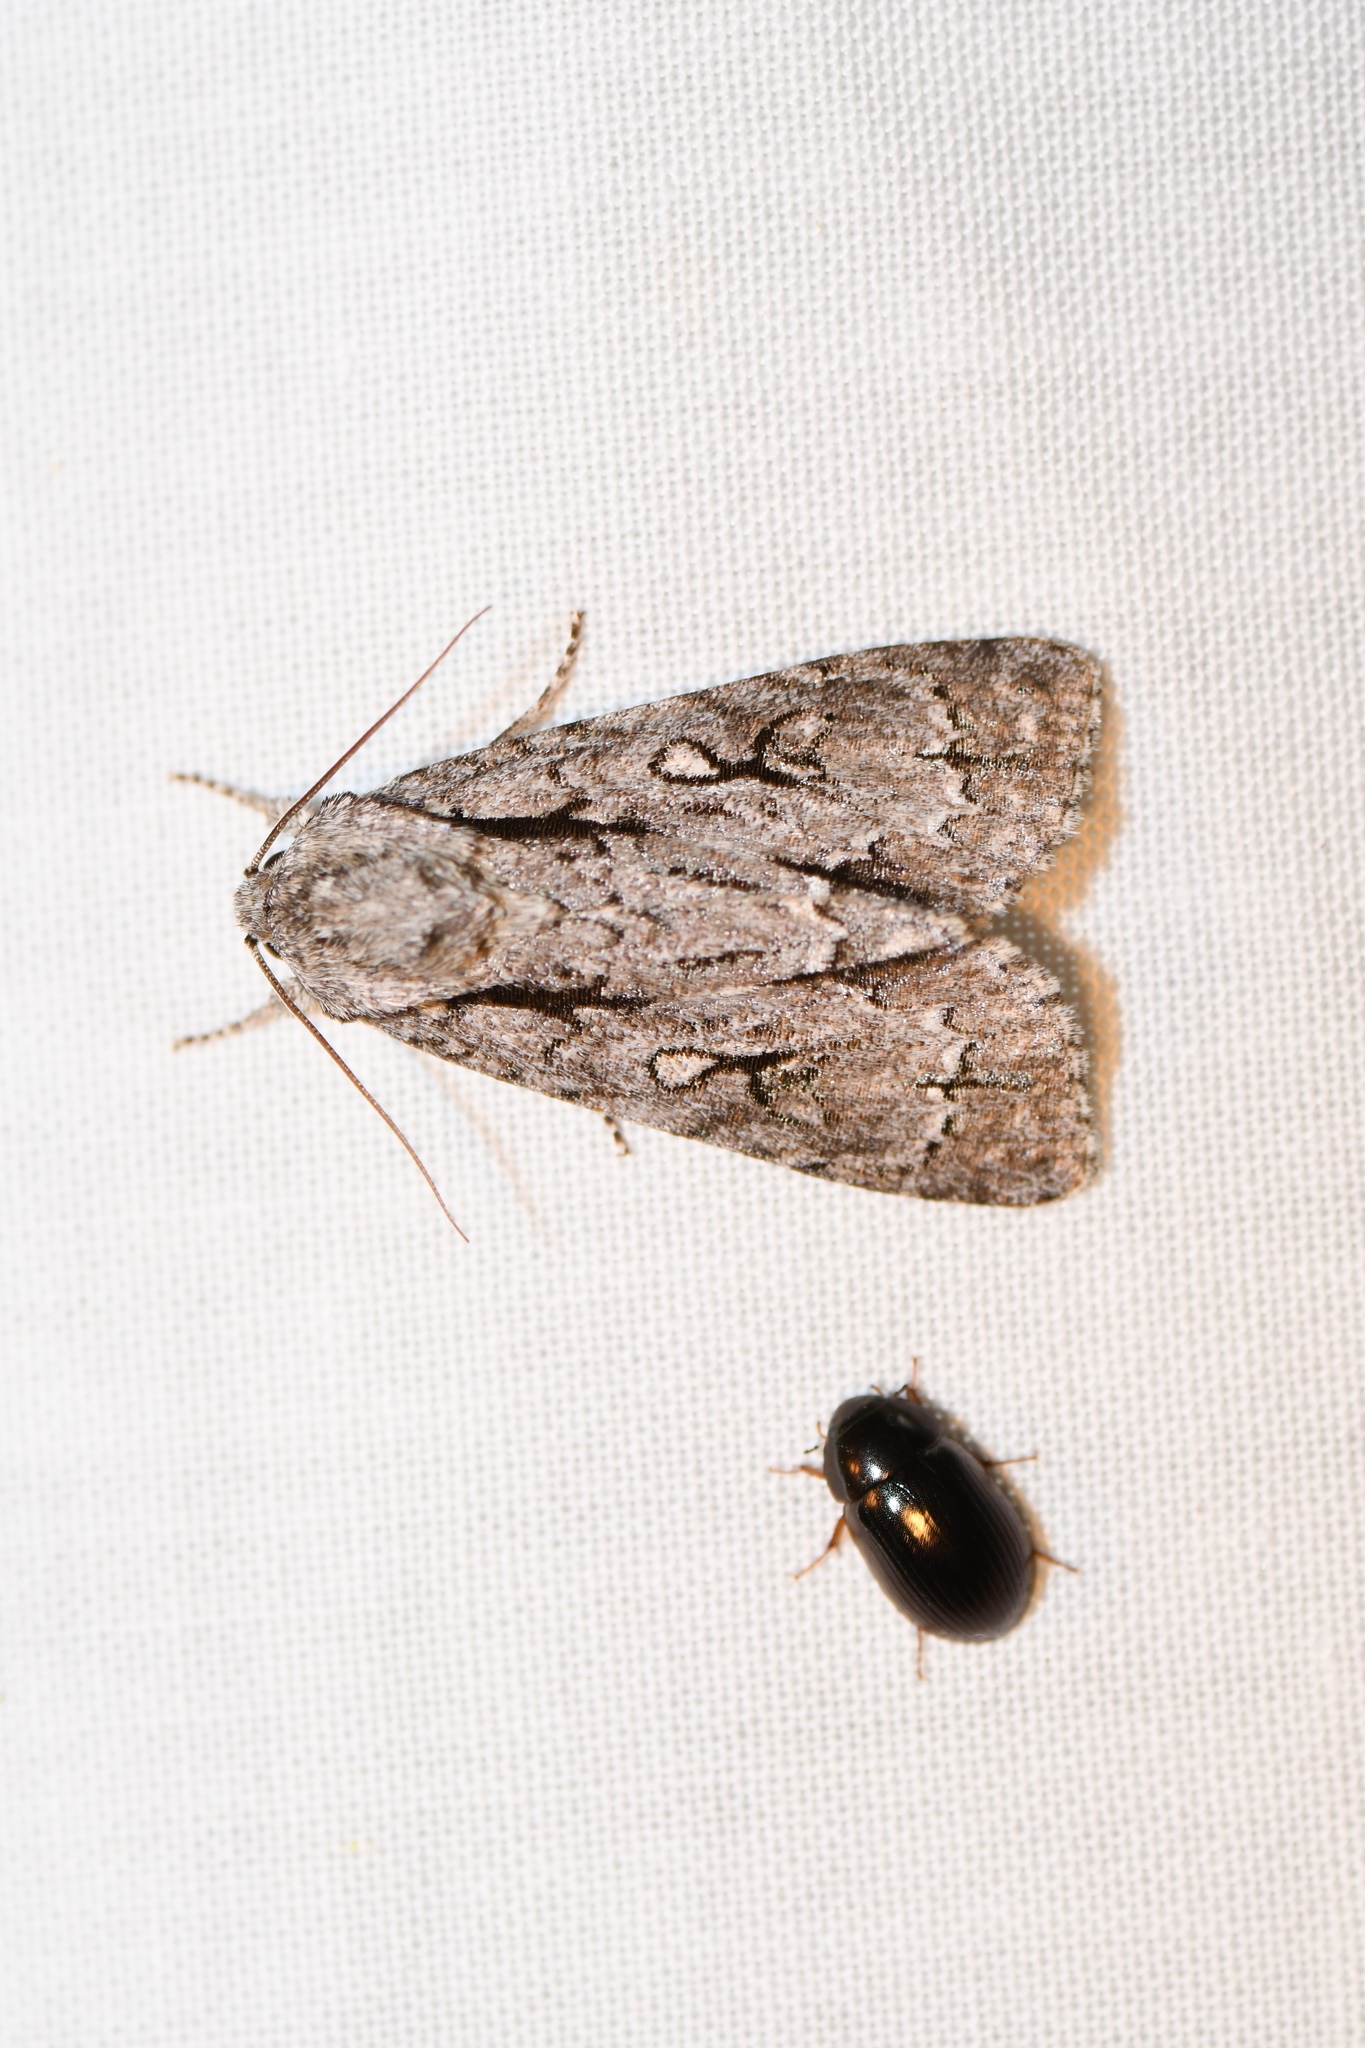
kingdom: Animalia
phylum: Arthropoda
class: Insecta
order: Lepidoptera
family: Noctuidae
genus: Acronicta
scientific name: Acronicta hasta
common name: Cherry dagger
